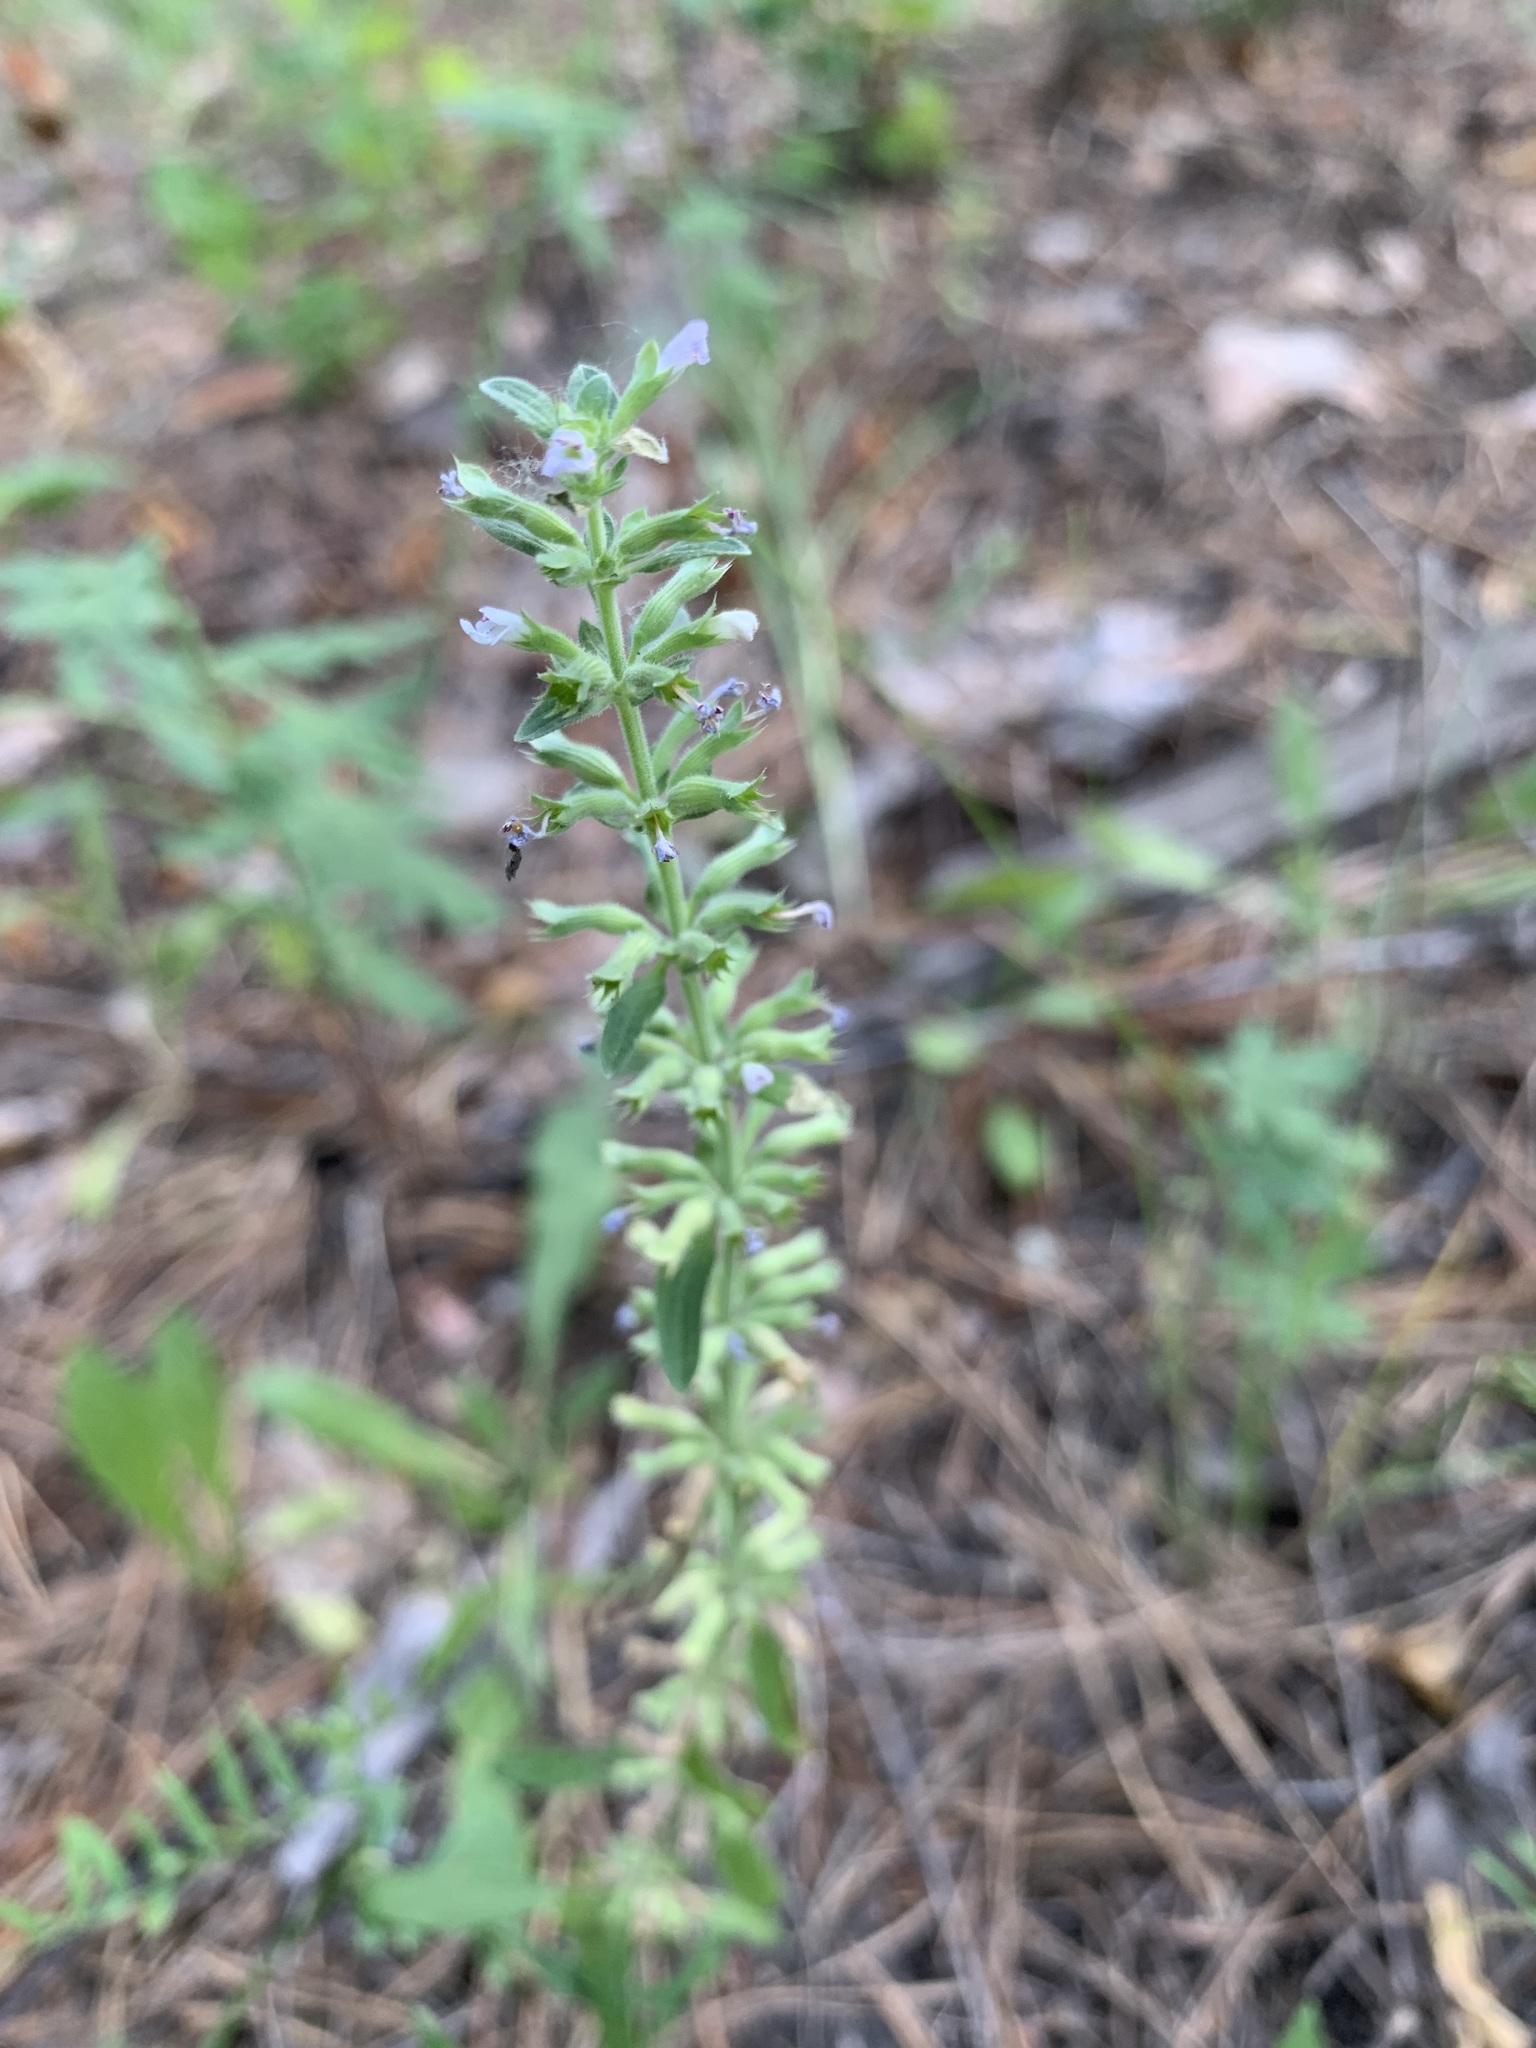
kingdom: Plantae
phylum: Tracheophyta
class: Magnoliopsida
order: Lamiales
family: Lamiaceae
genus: Dracocephalum
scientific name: Dracocephalum thymiflorum
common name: Thymeleaf dragonhead
